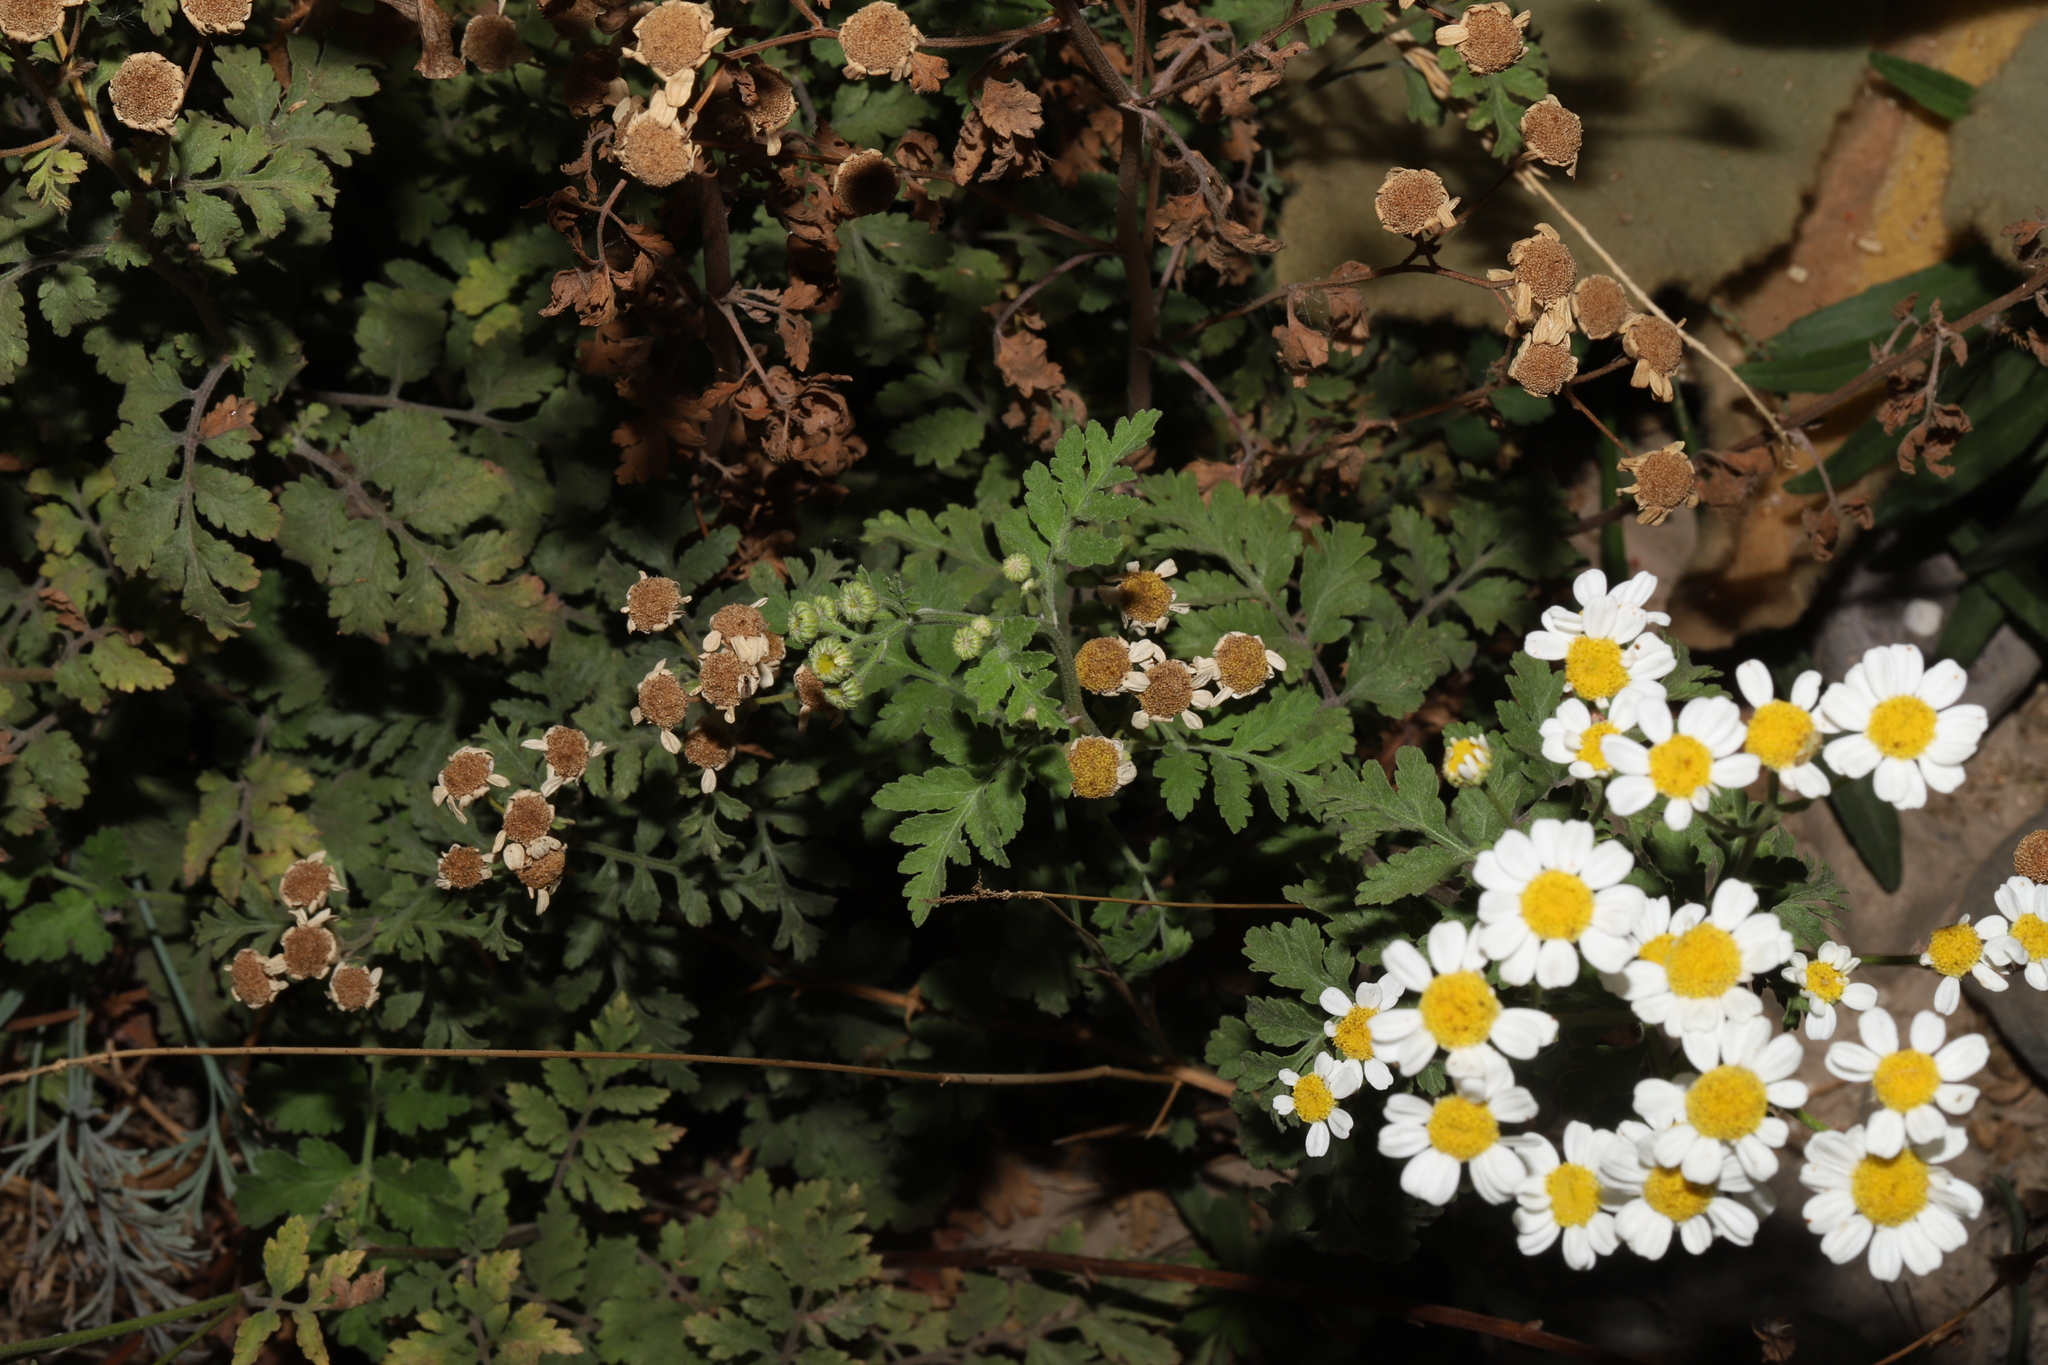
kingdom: Plantae
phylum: Tracheophyta
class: Magnoliopsida
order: Asterales
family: Asteraceae
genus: Tanacetum
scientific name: Tanacetum parthenium
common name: Feverfew
